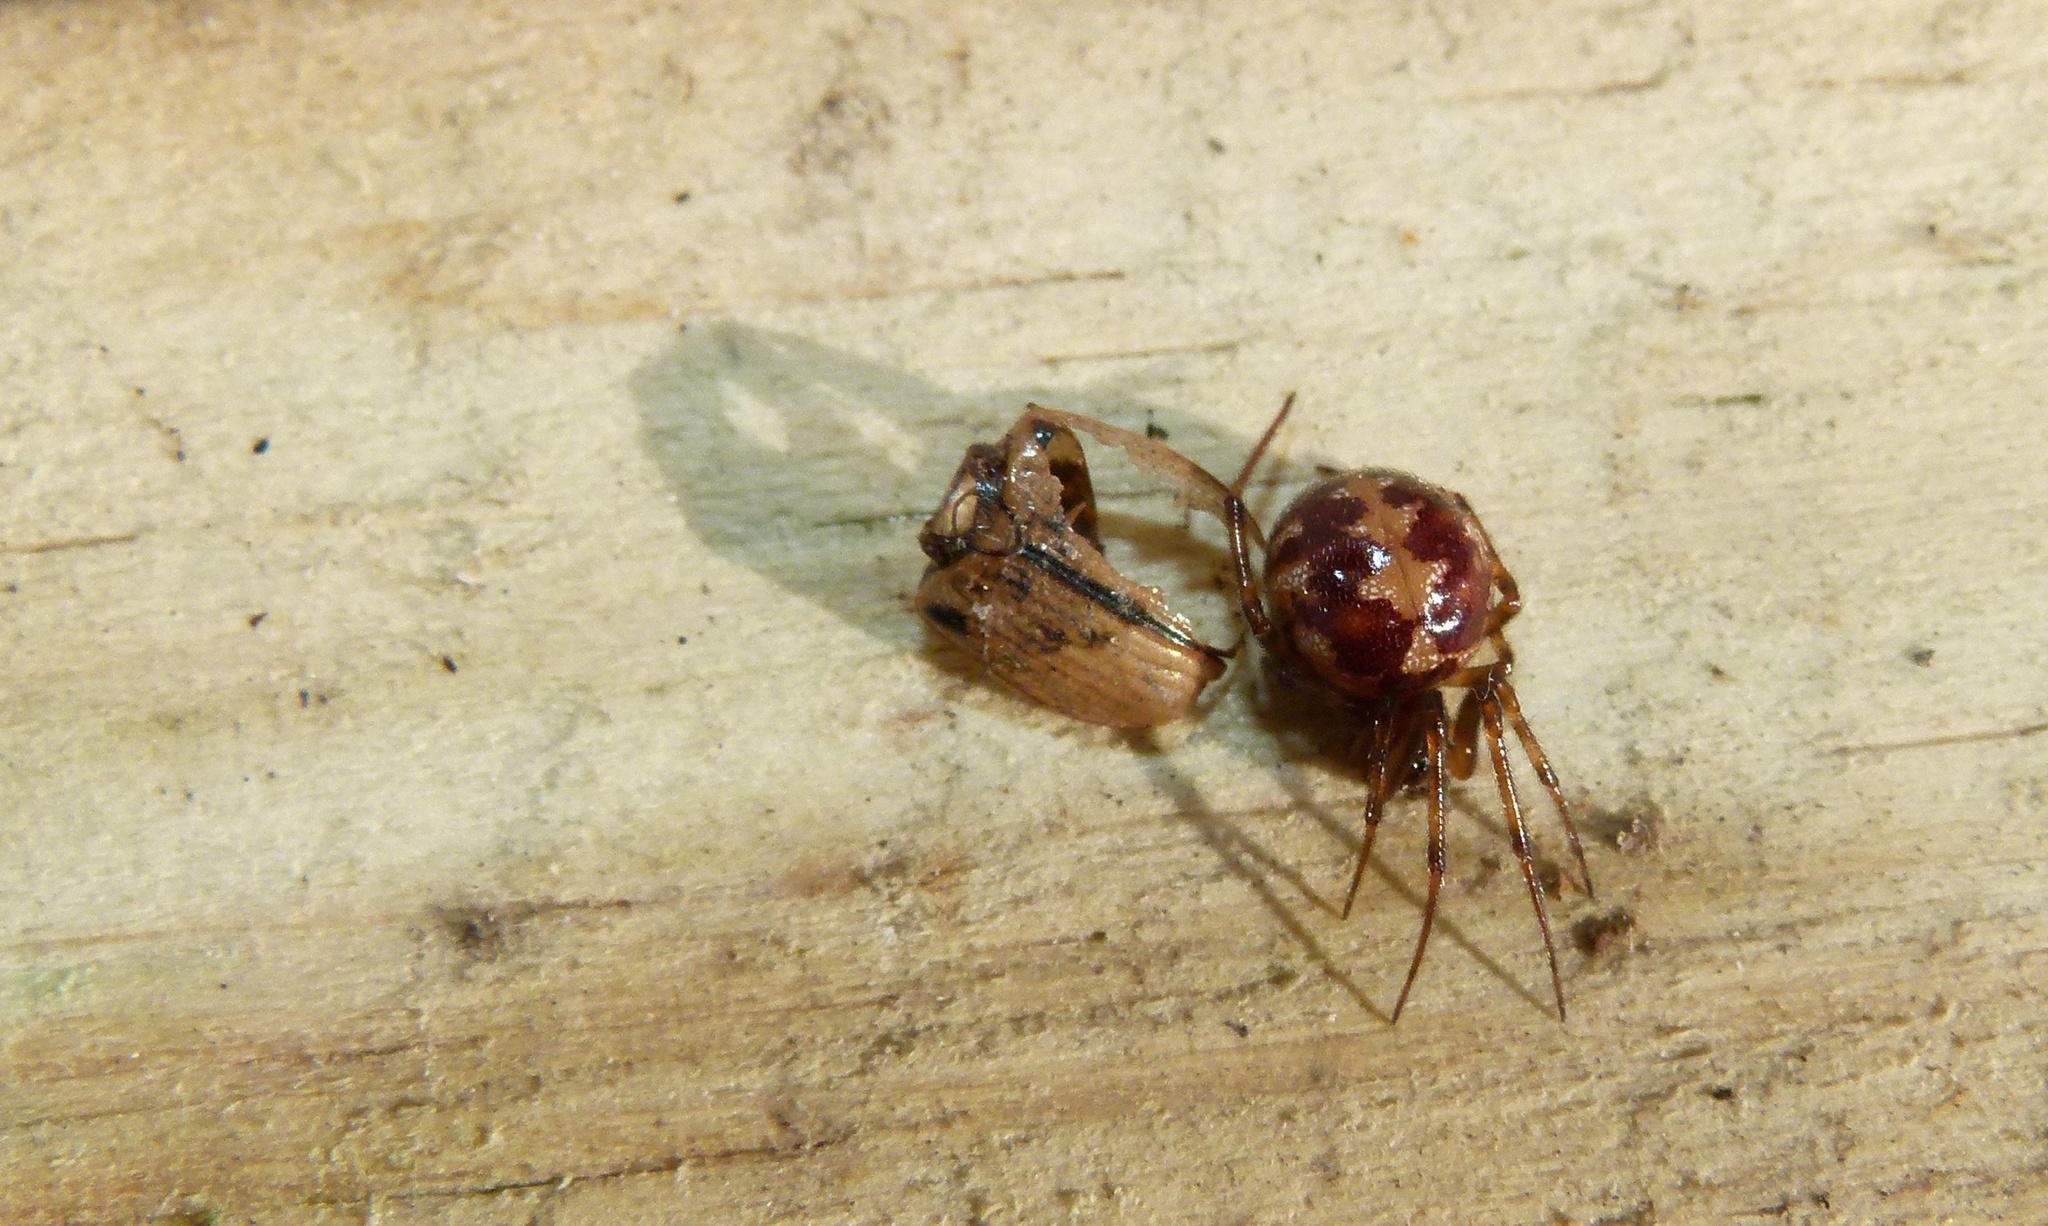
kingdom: Animalia
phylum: Arthropoda
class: Arachnida
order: Araneae
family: Theridiidae
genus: Steatoda
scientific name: Steatoda triangulosa
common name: Triangulate bud spider
